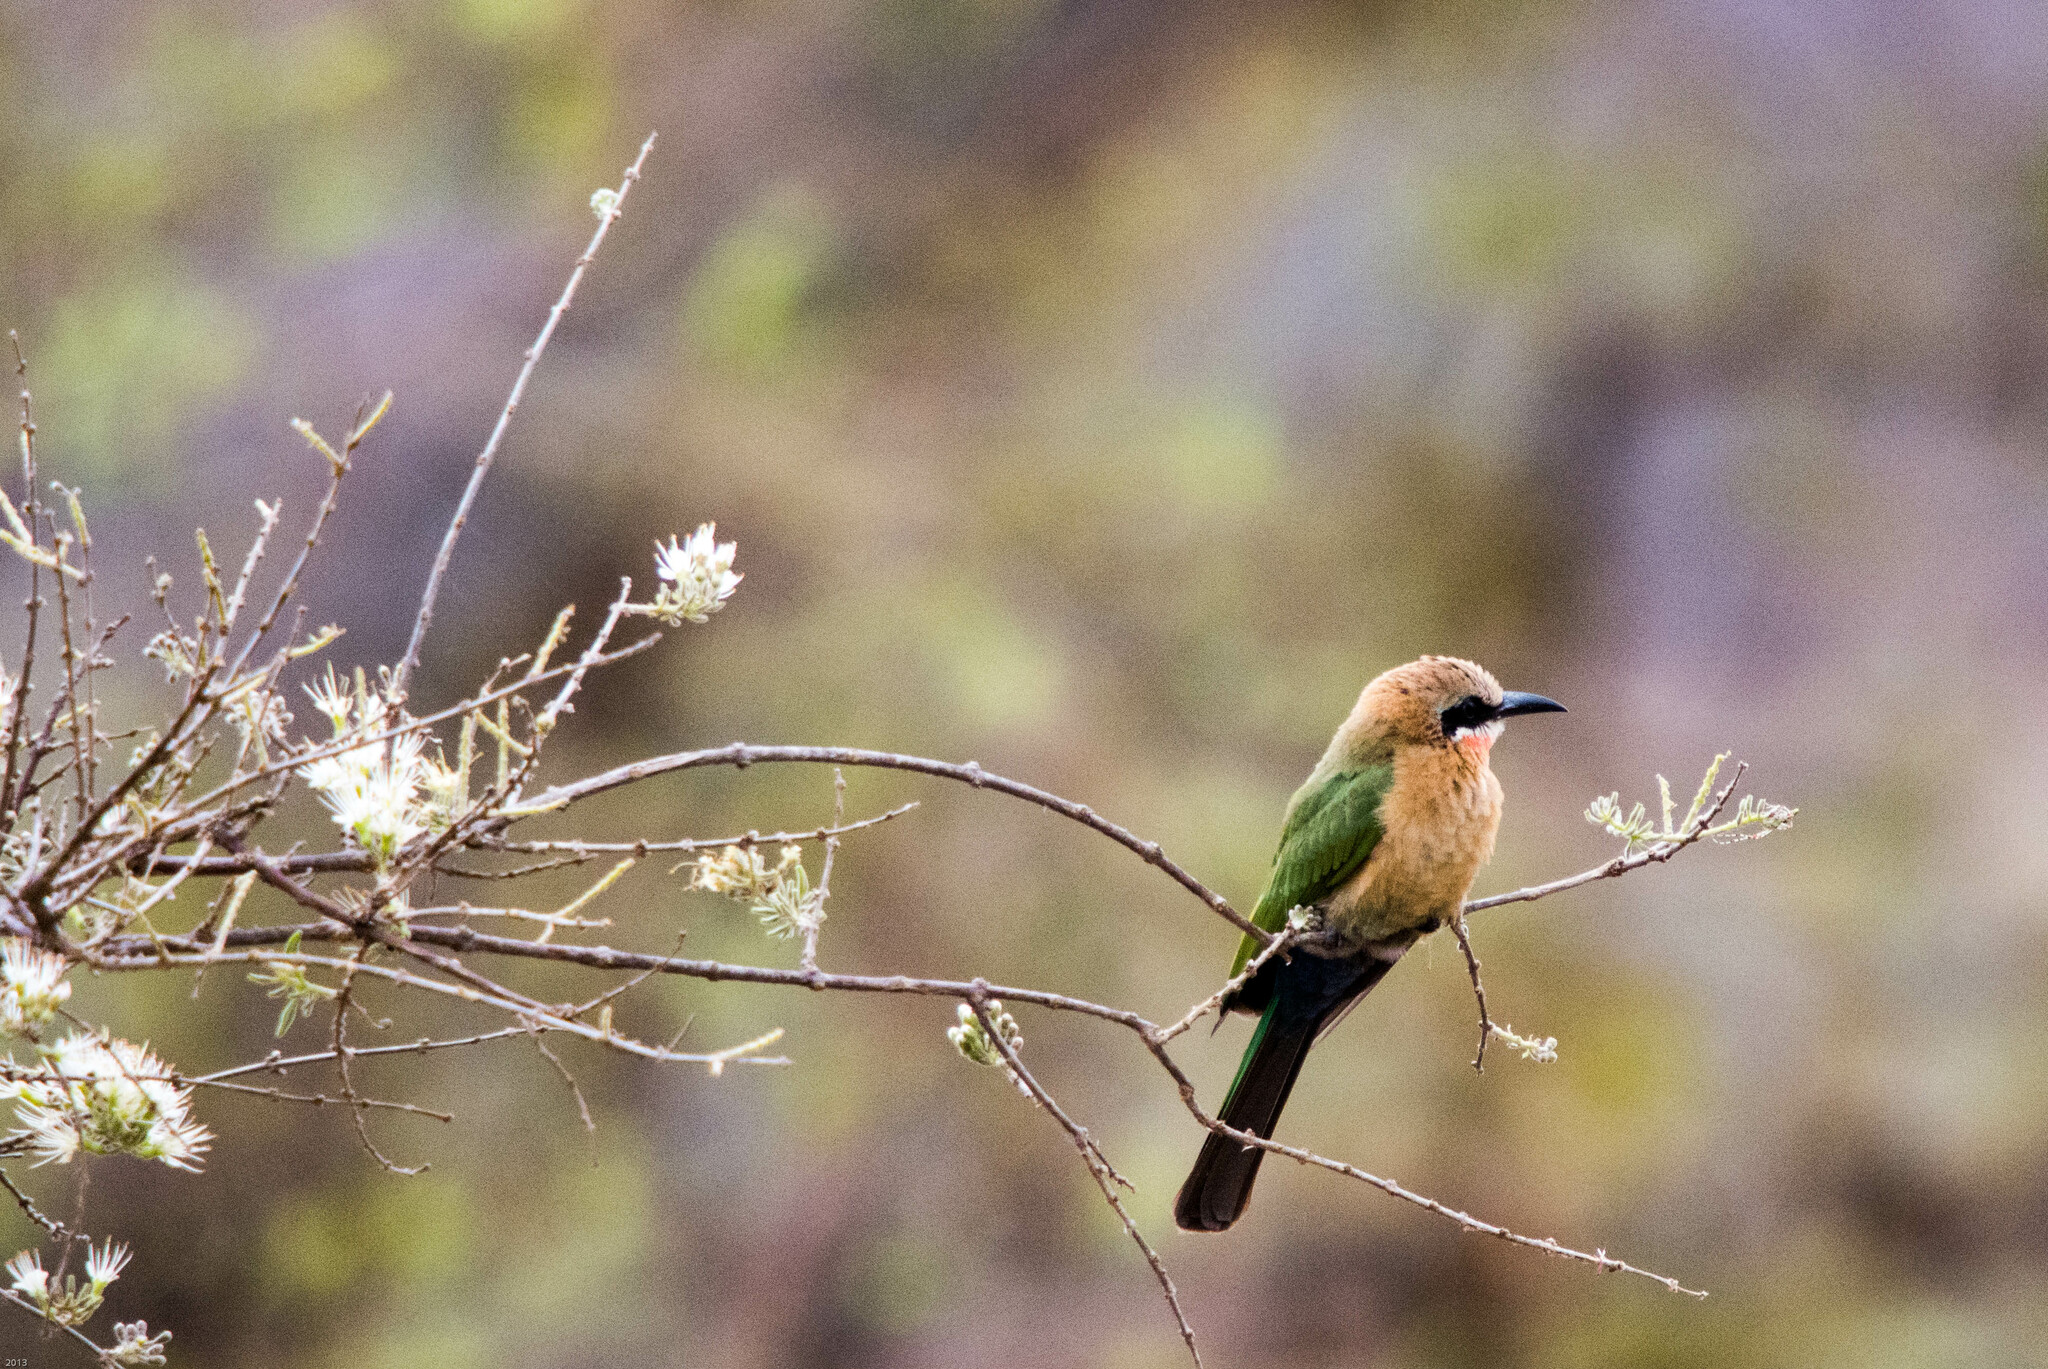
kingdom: Animalia
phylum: Chordata
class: Aves
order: Coraciiformes
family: Meropidae
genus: Merops
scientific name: Merops bullockoides
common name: White-fronted bee-eater
